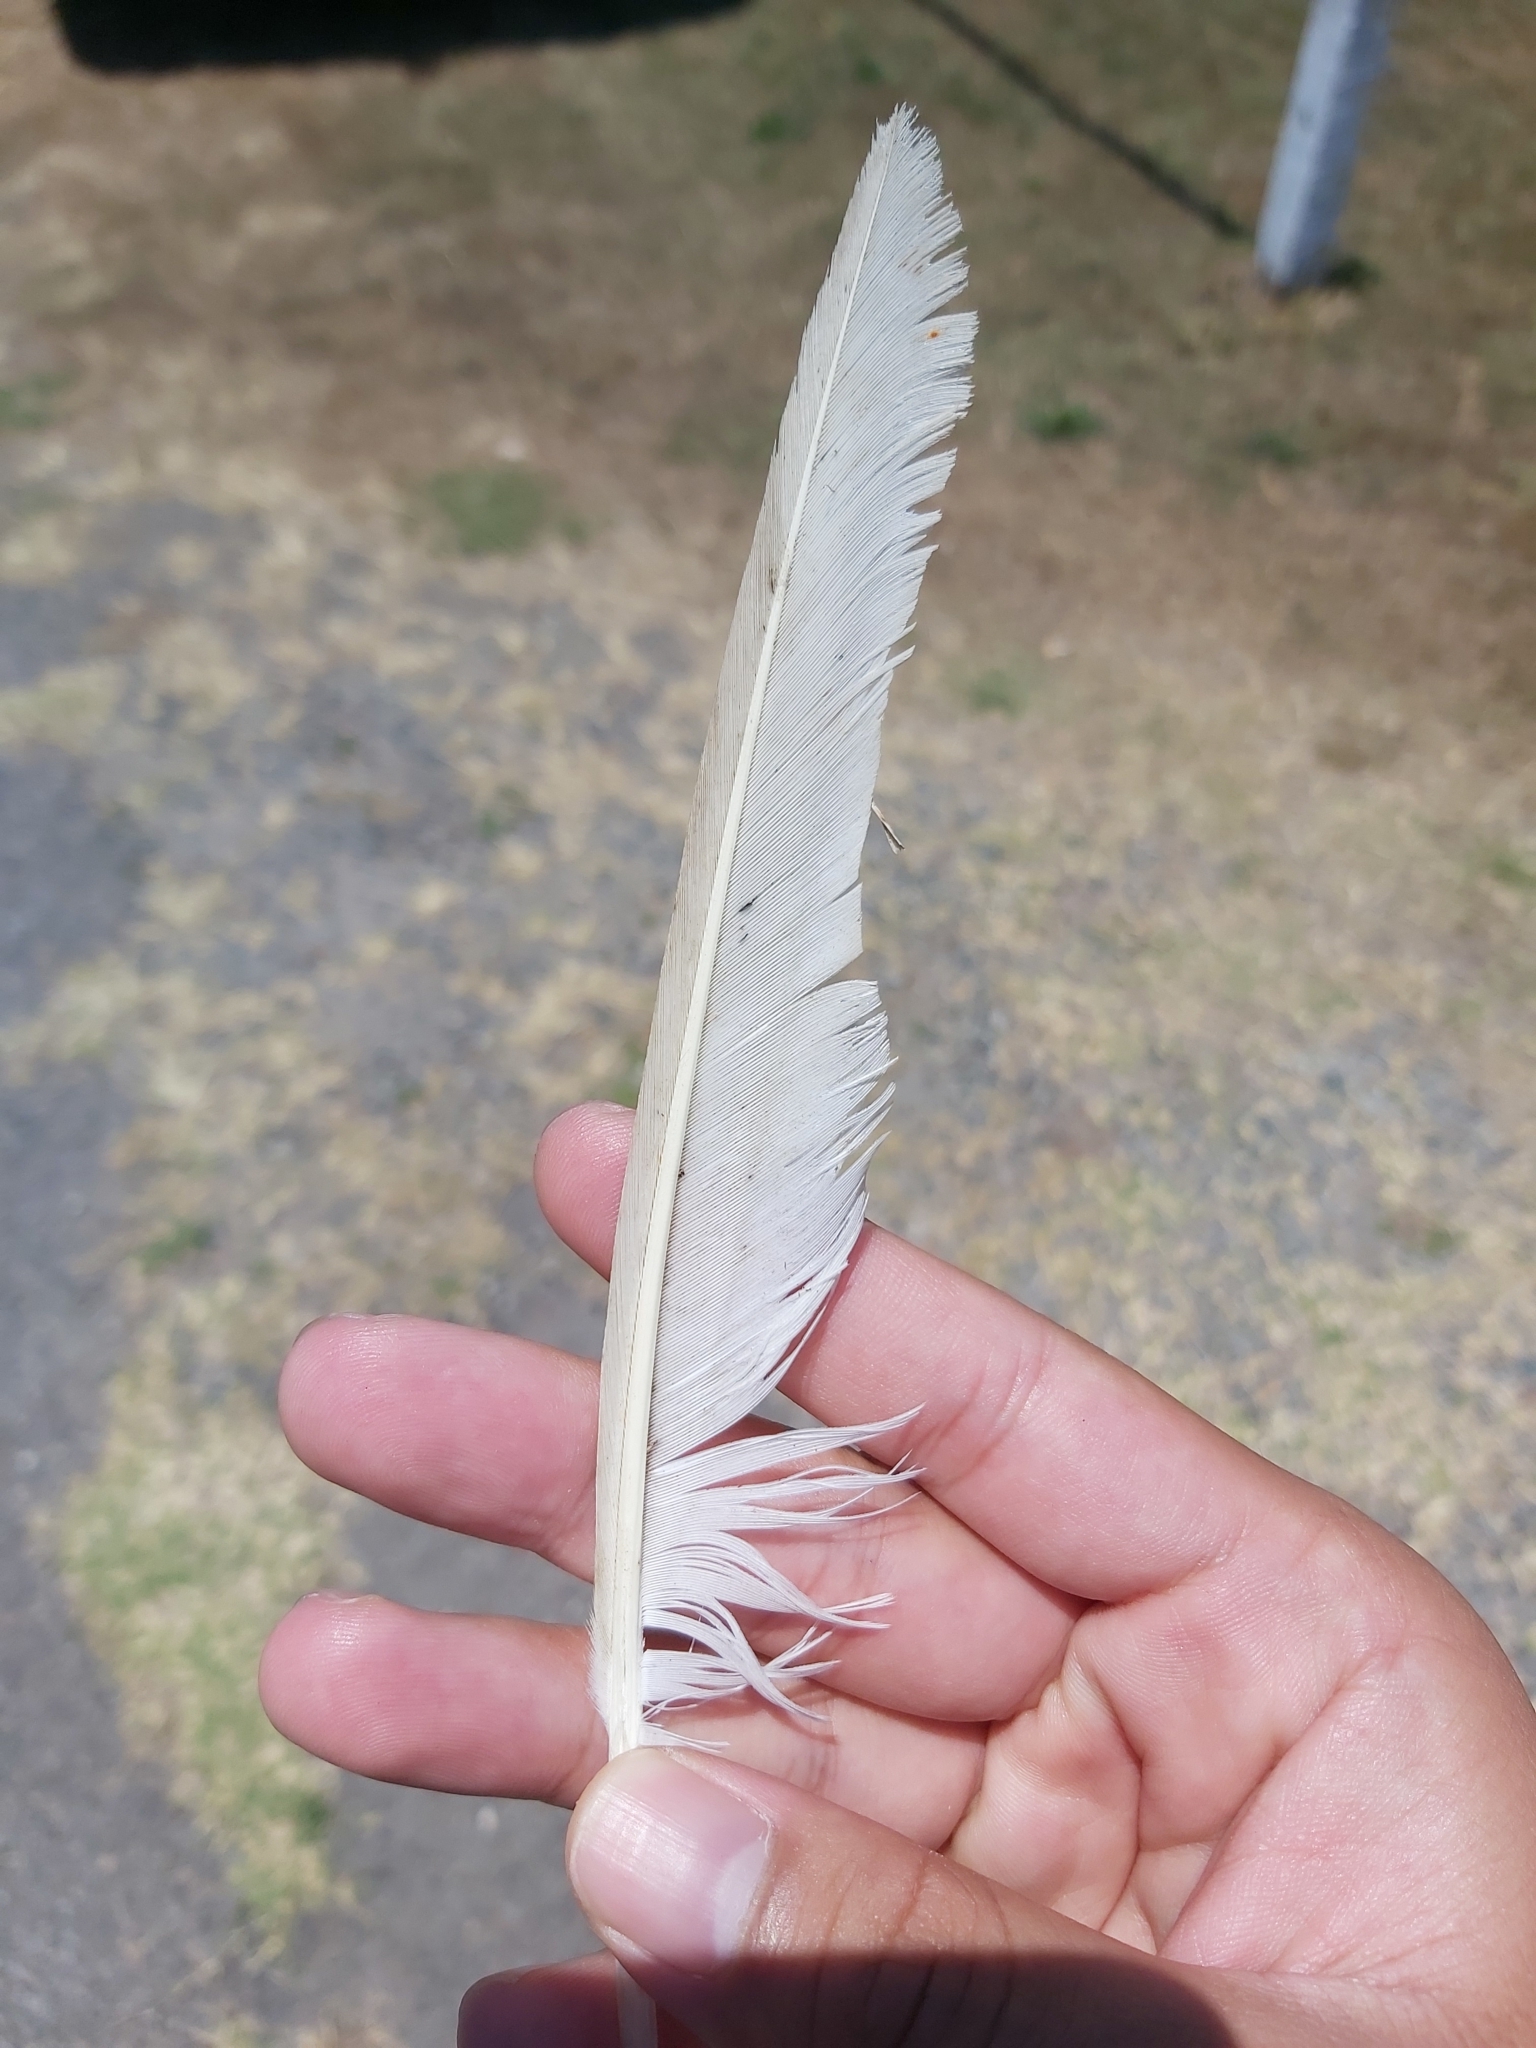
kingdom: Animalia
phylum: Chordata
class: Aves
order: Anseriformes
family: Anatidae
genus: Cairina
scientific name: Cairina moschata
